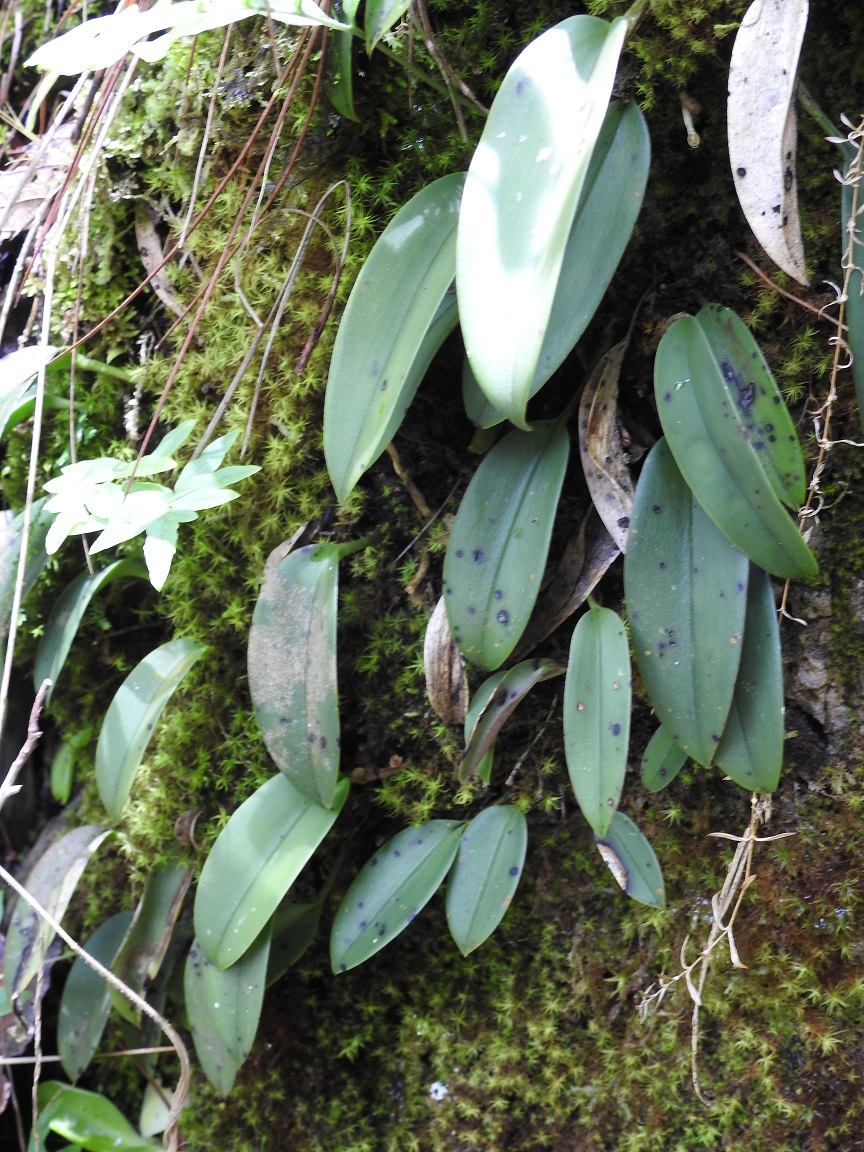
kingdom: Plantae
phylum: Tracheophyta
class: Liliopsida
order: Asparagales
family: Orchidaceae
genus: Acianthera
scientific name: Acianthera
